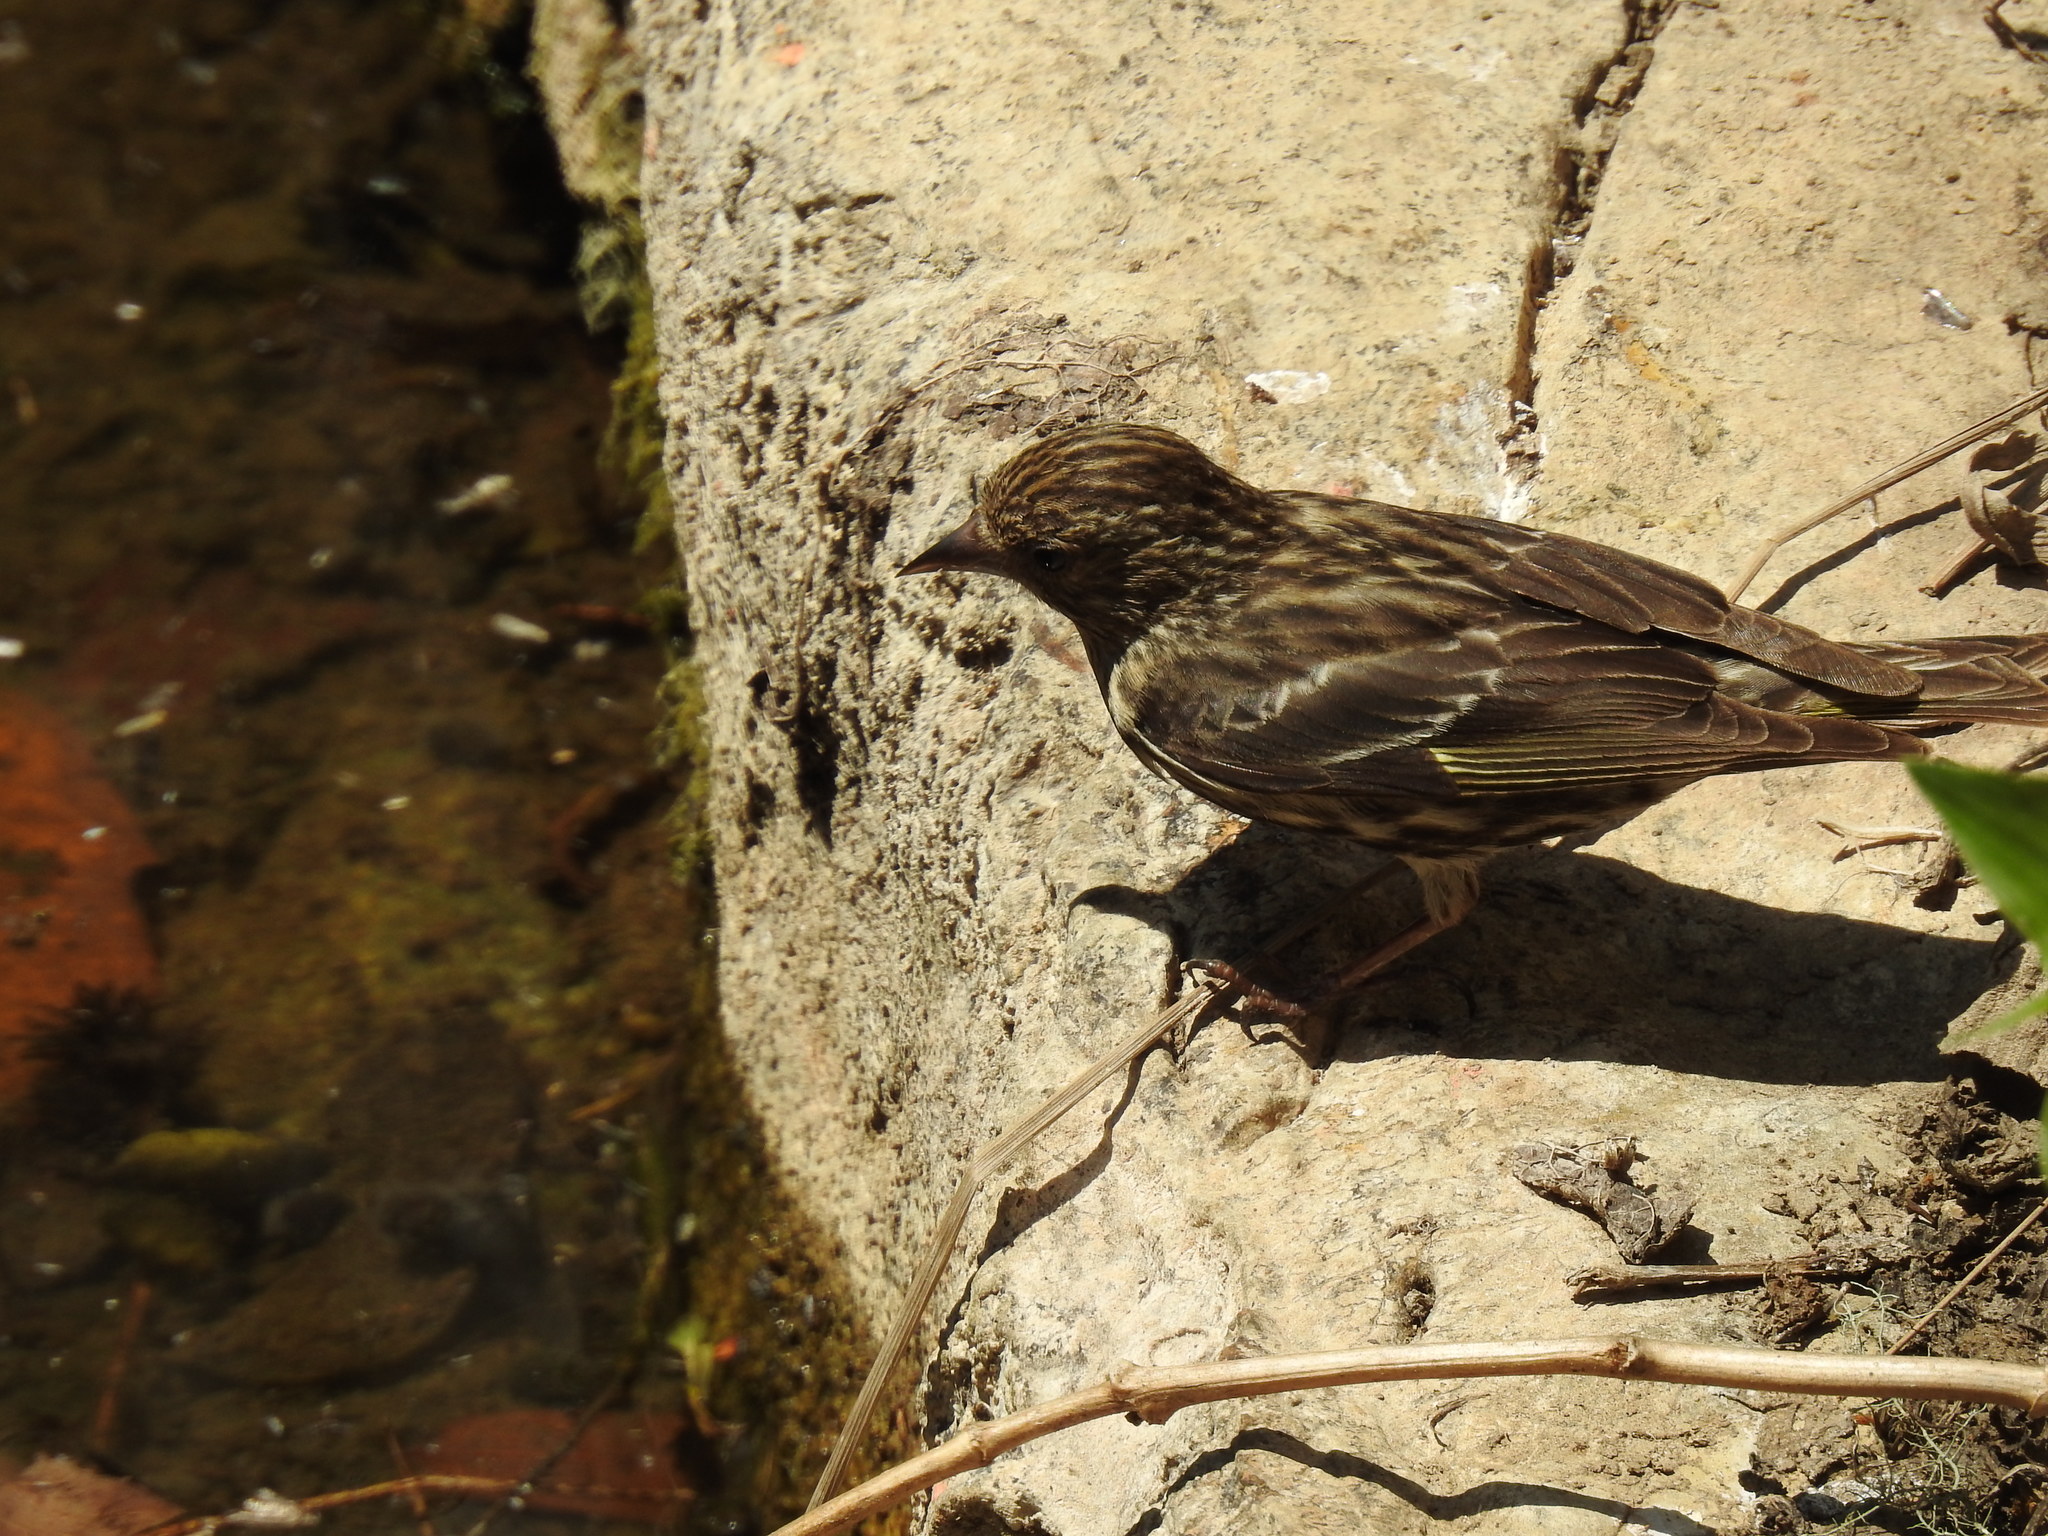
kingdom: Animalia
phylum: Chordata
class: Aves
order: Passeriformes
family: Fringillidae
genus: Spinus
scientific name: Spinus pinus
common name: Pine siskin
